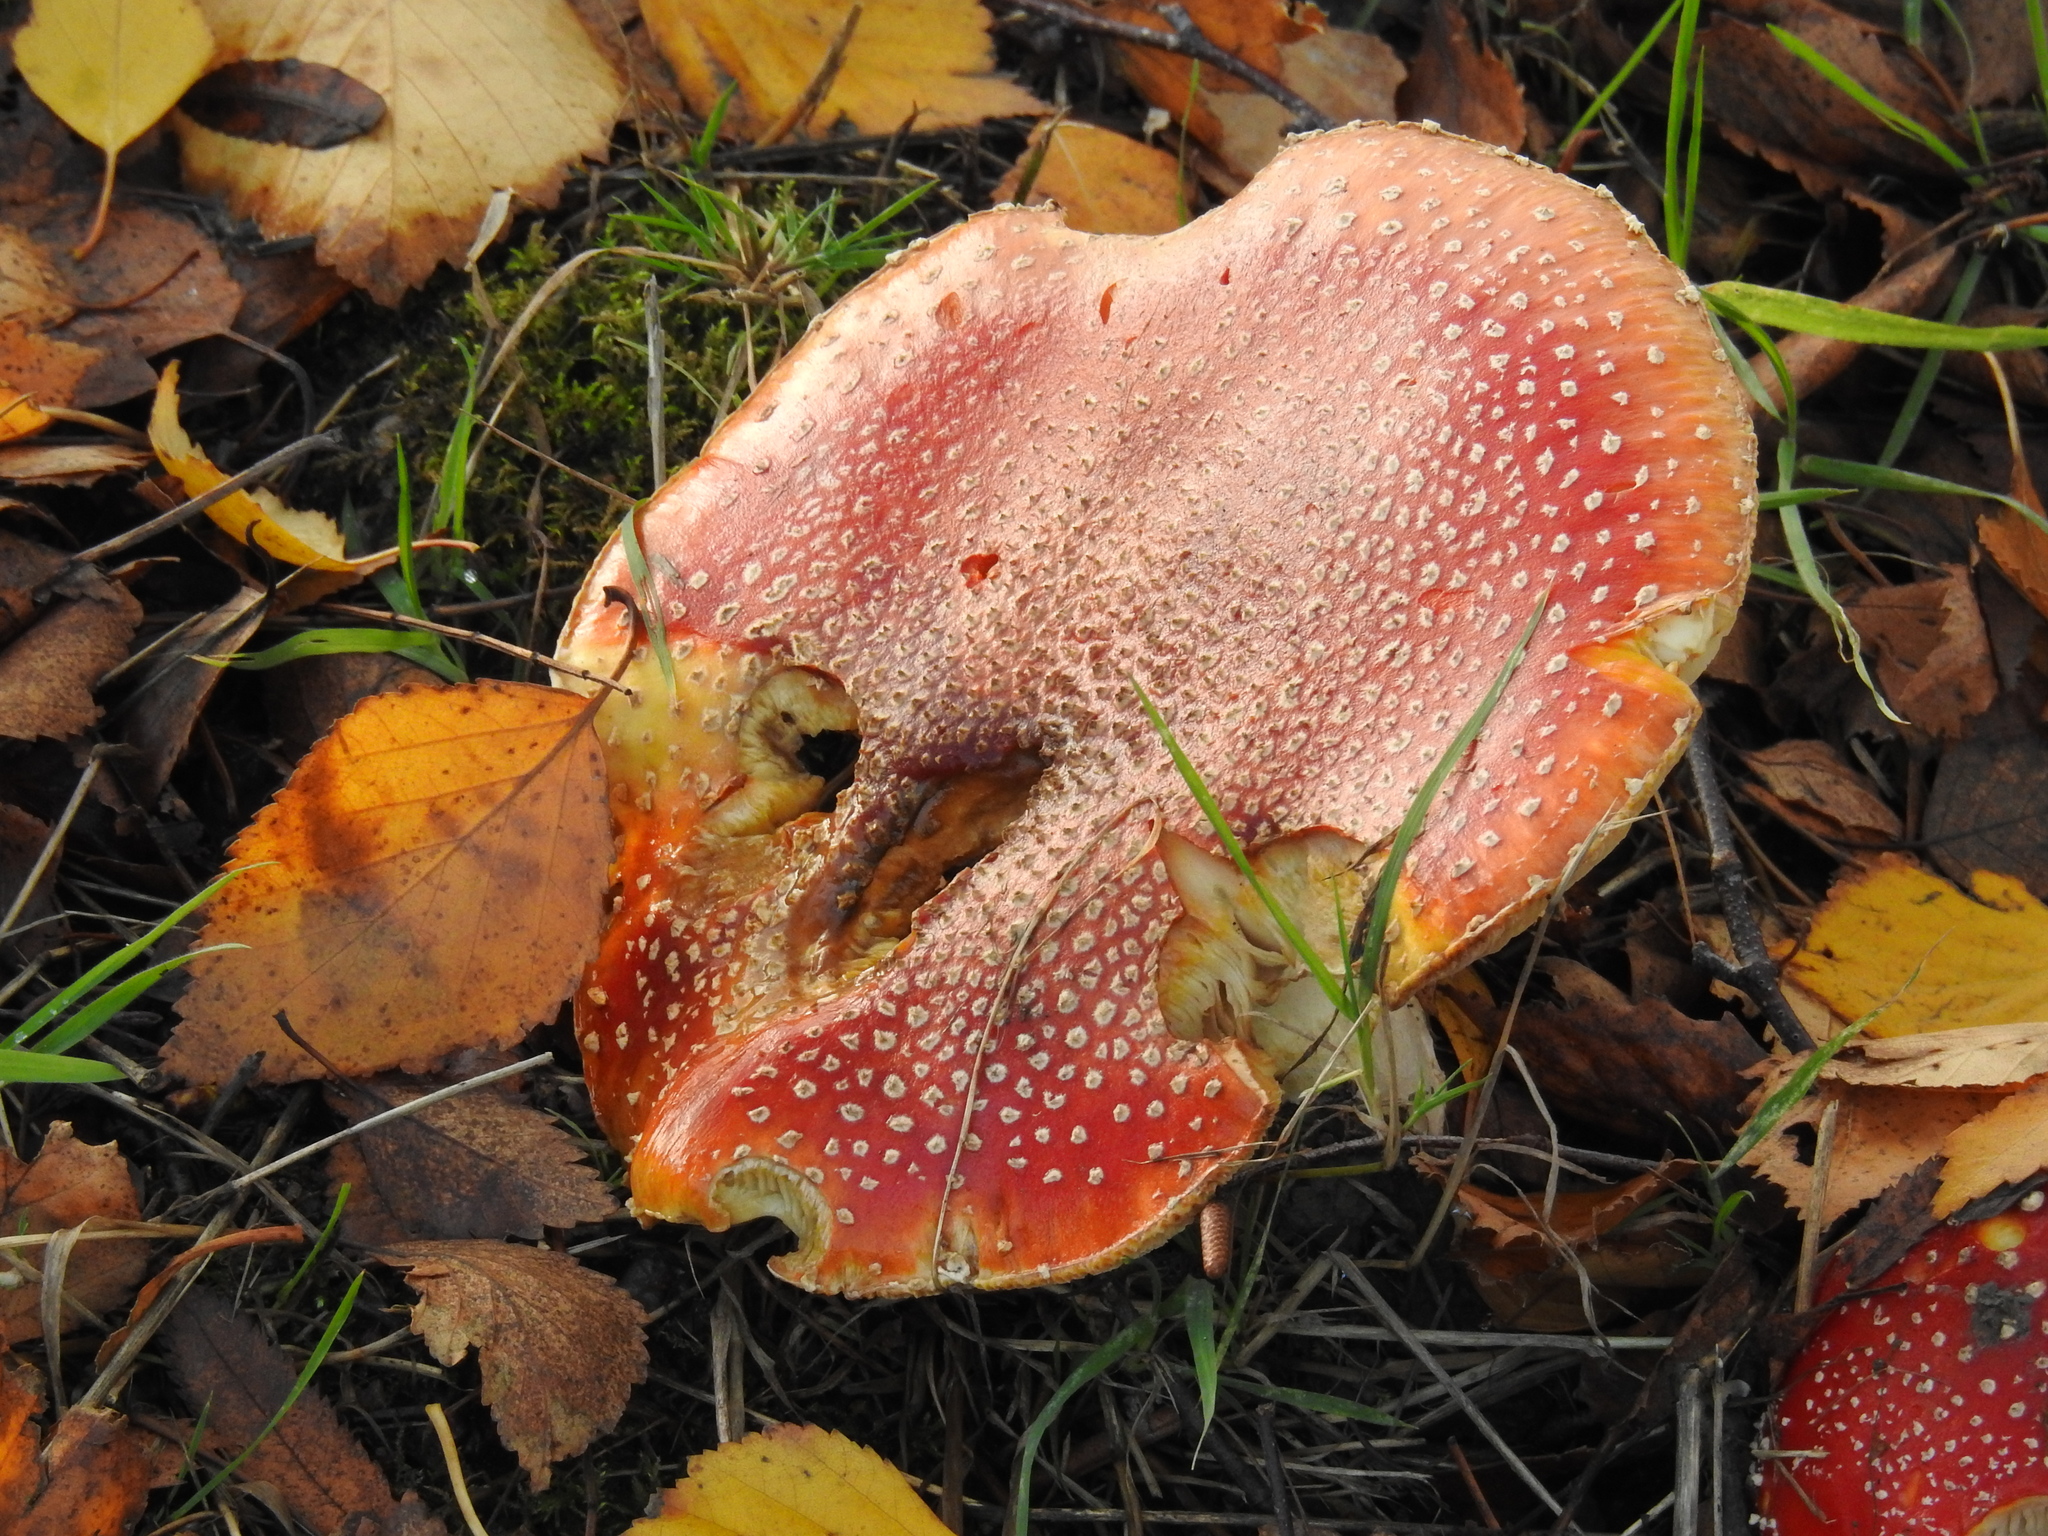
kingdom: Fungi
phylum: Basidiomycota
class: Agaricomycetes
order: Agaricales
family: Amanitaceae
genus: Amanita
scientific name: Amanita muscaria
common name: Fly agaric
